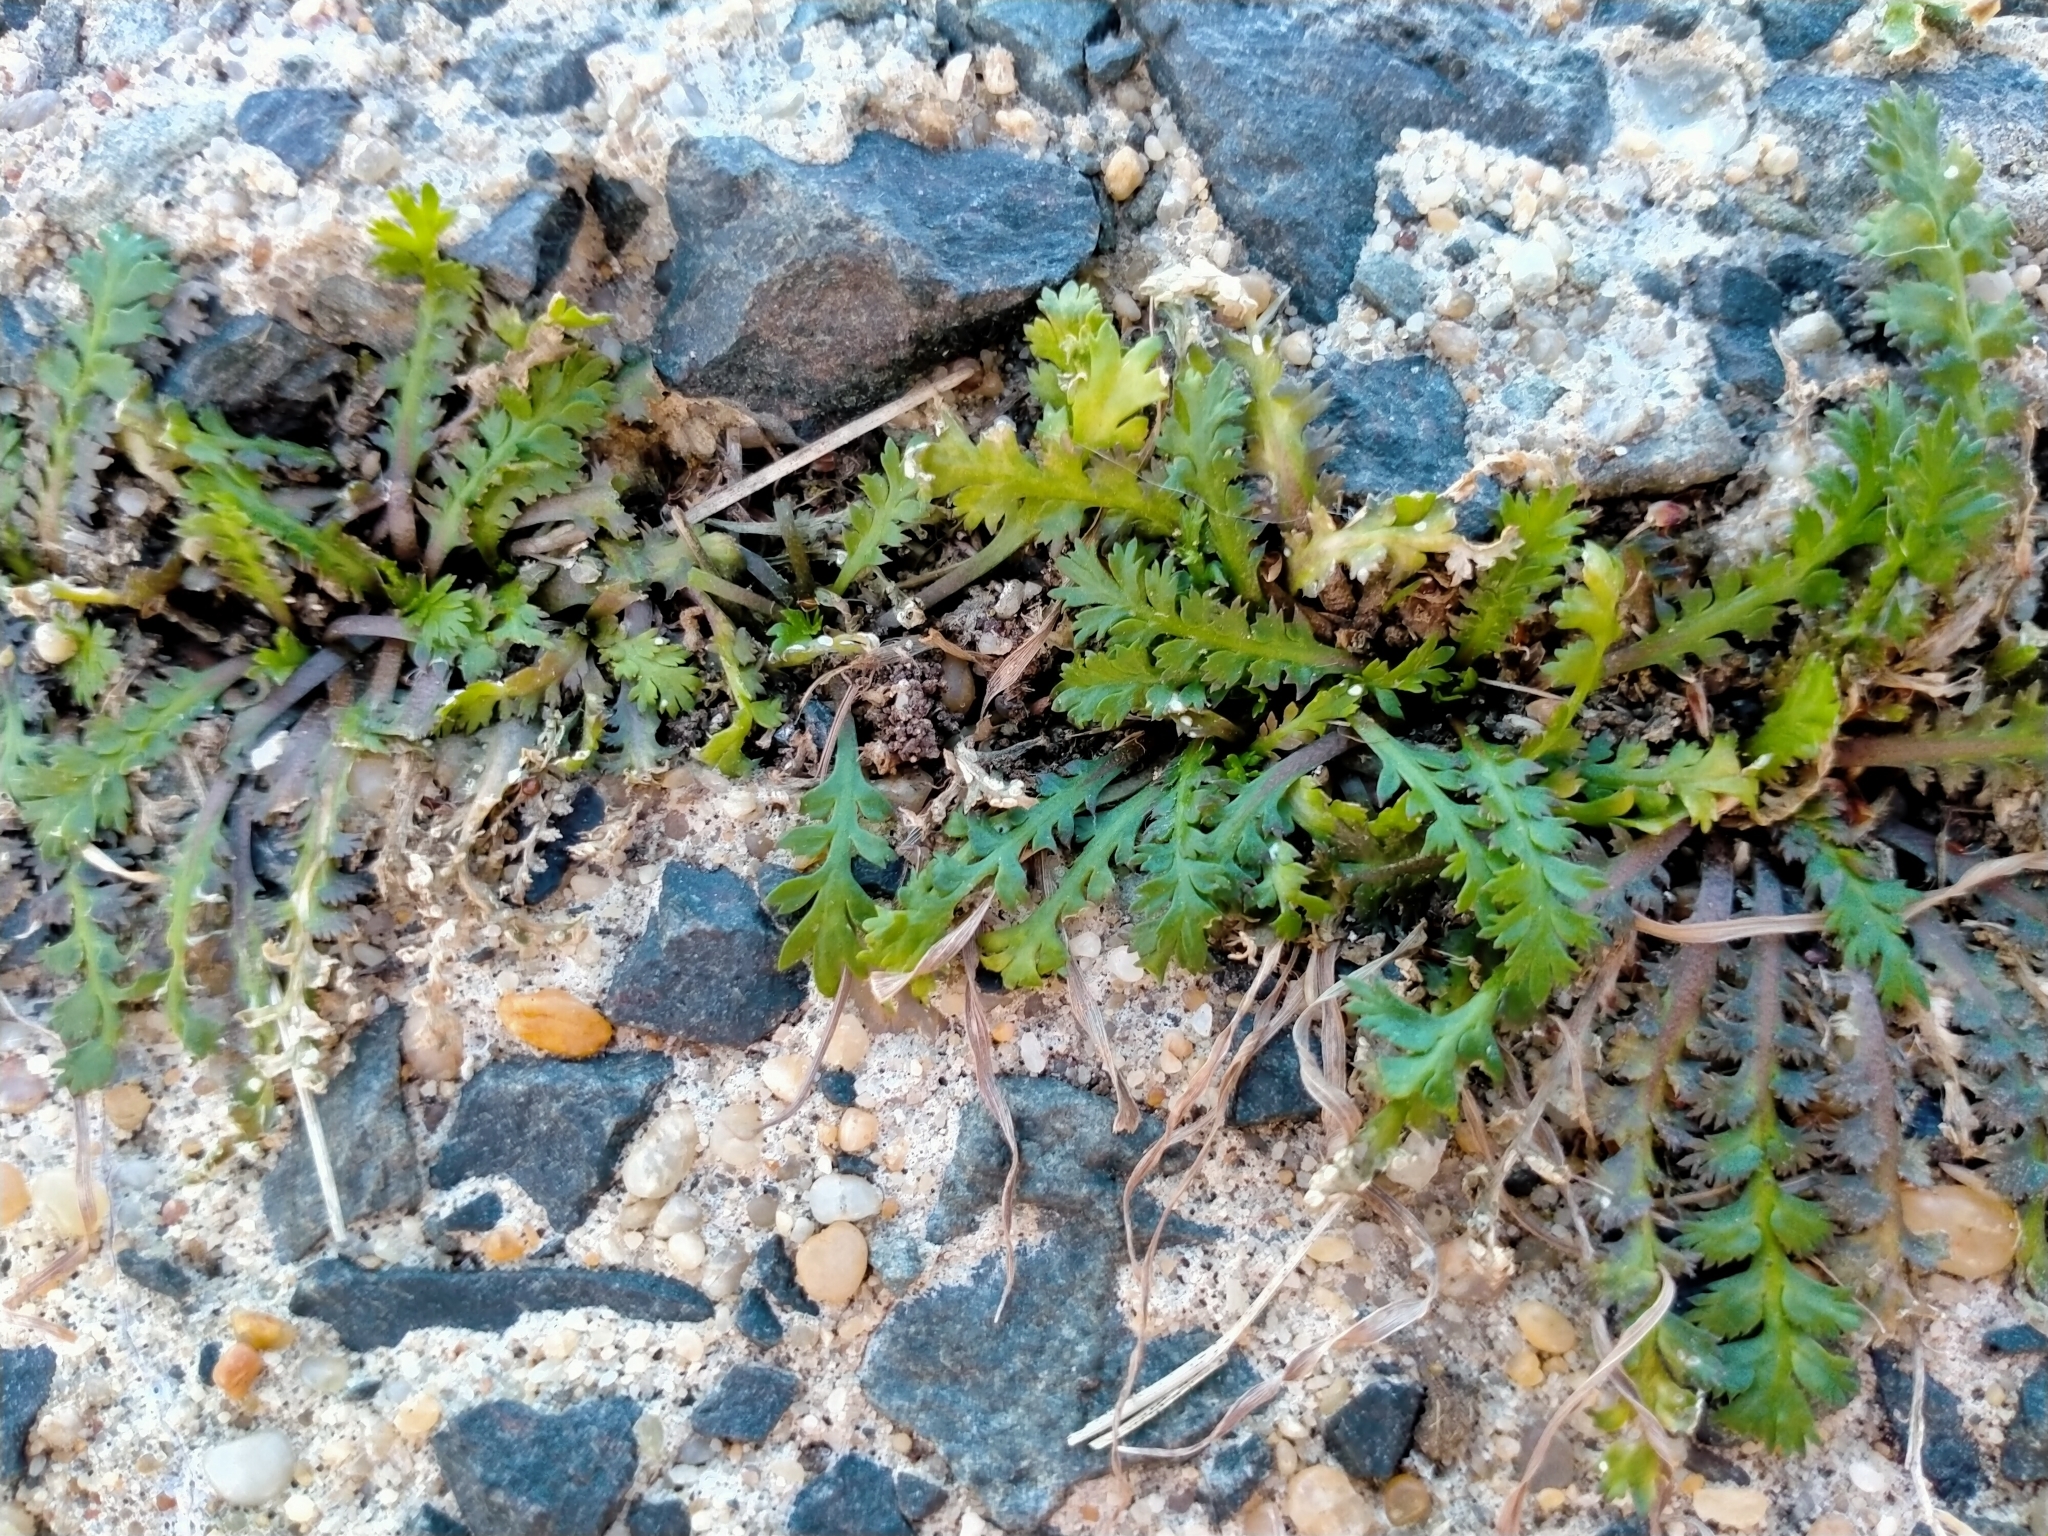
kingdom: Plantae
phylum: Tracheophyta
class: Magnoliopsida
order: Brassicales
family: Brassicaceae
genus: Lepidium
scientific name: Lepidium tenuicaule
